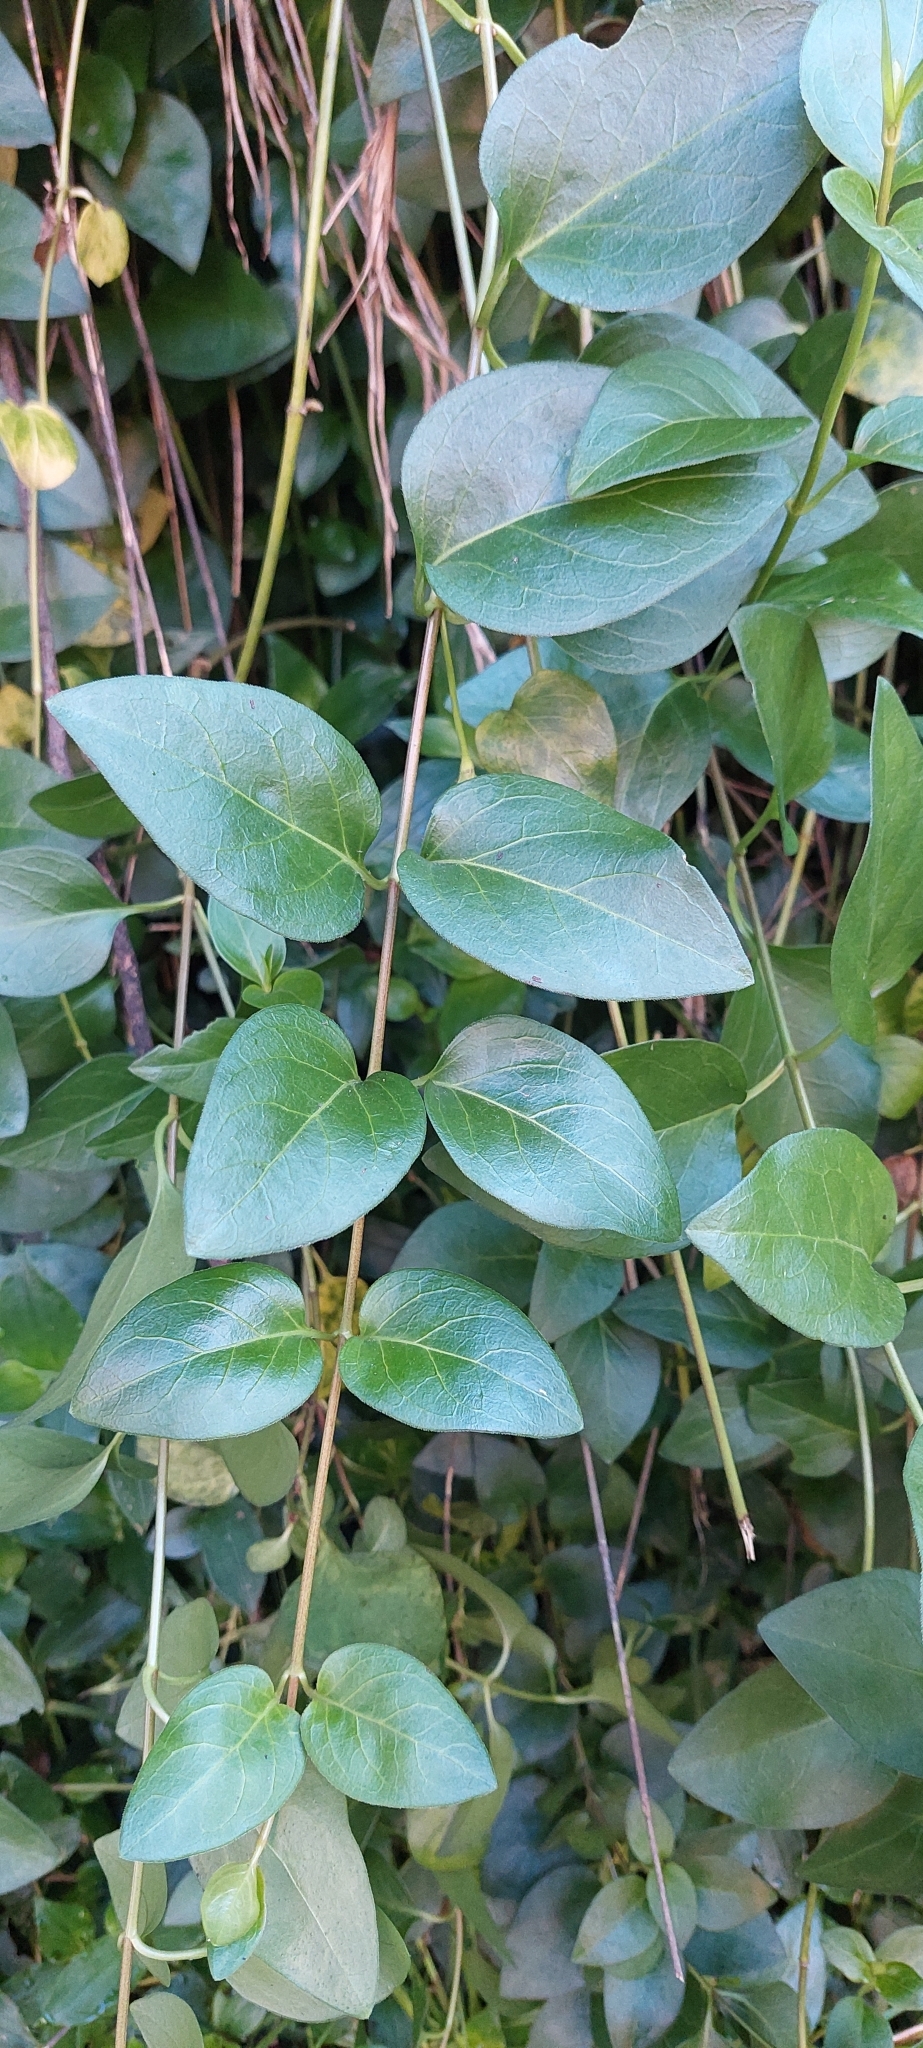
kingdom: Plantae
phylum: Tracheophyta
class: Magnoliopsida
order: Gentianales
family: Apocynaceae
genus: Vinca
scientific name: Vinca major
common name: Greater periwinkle
